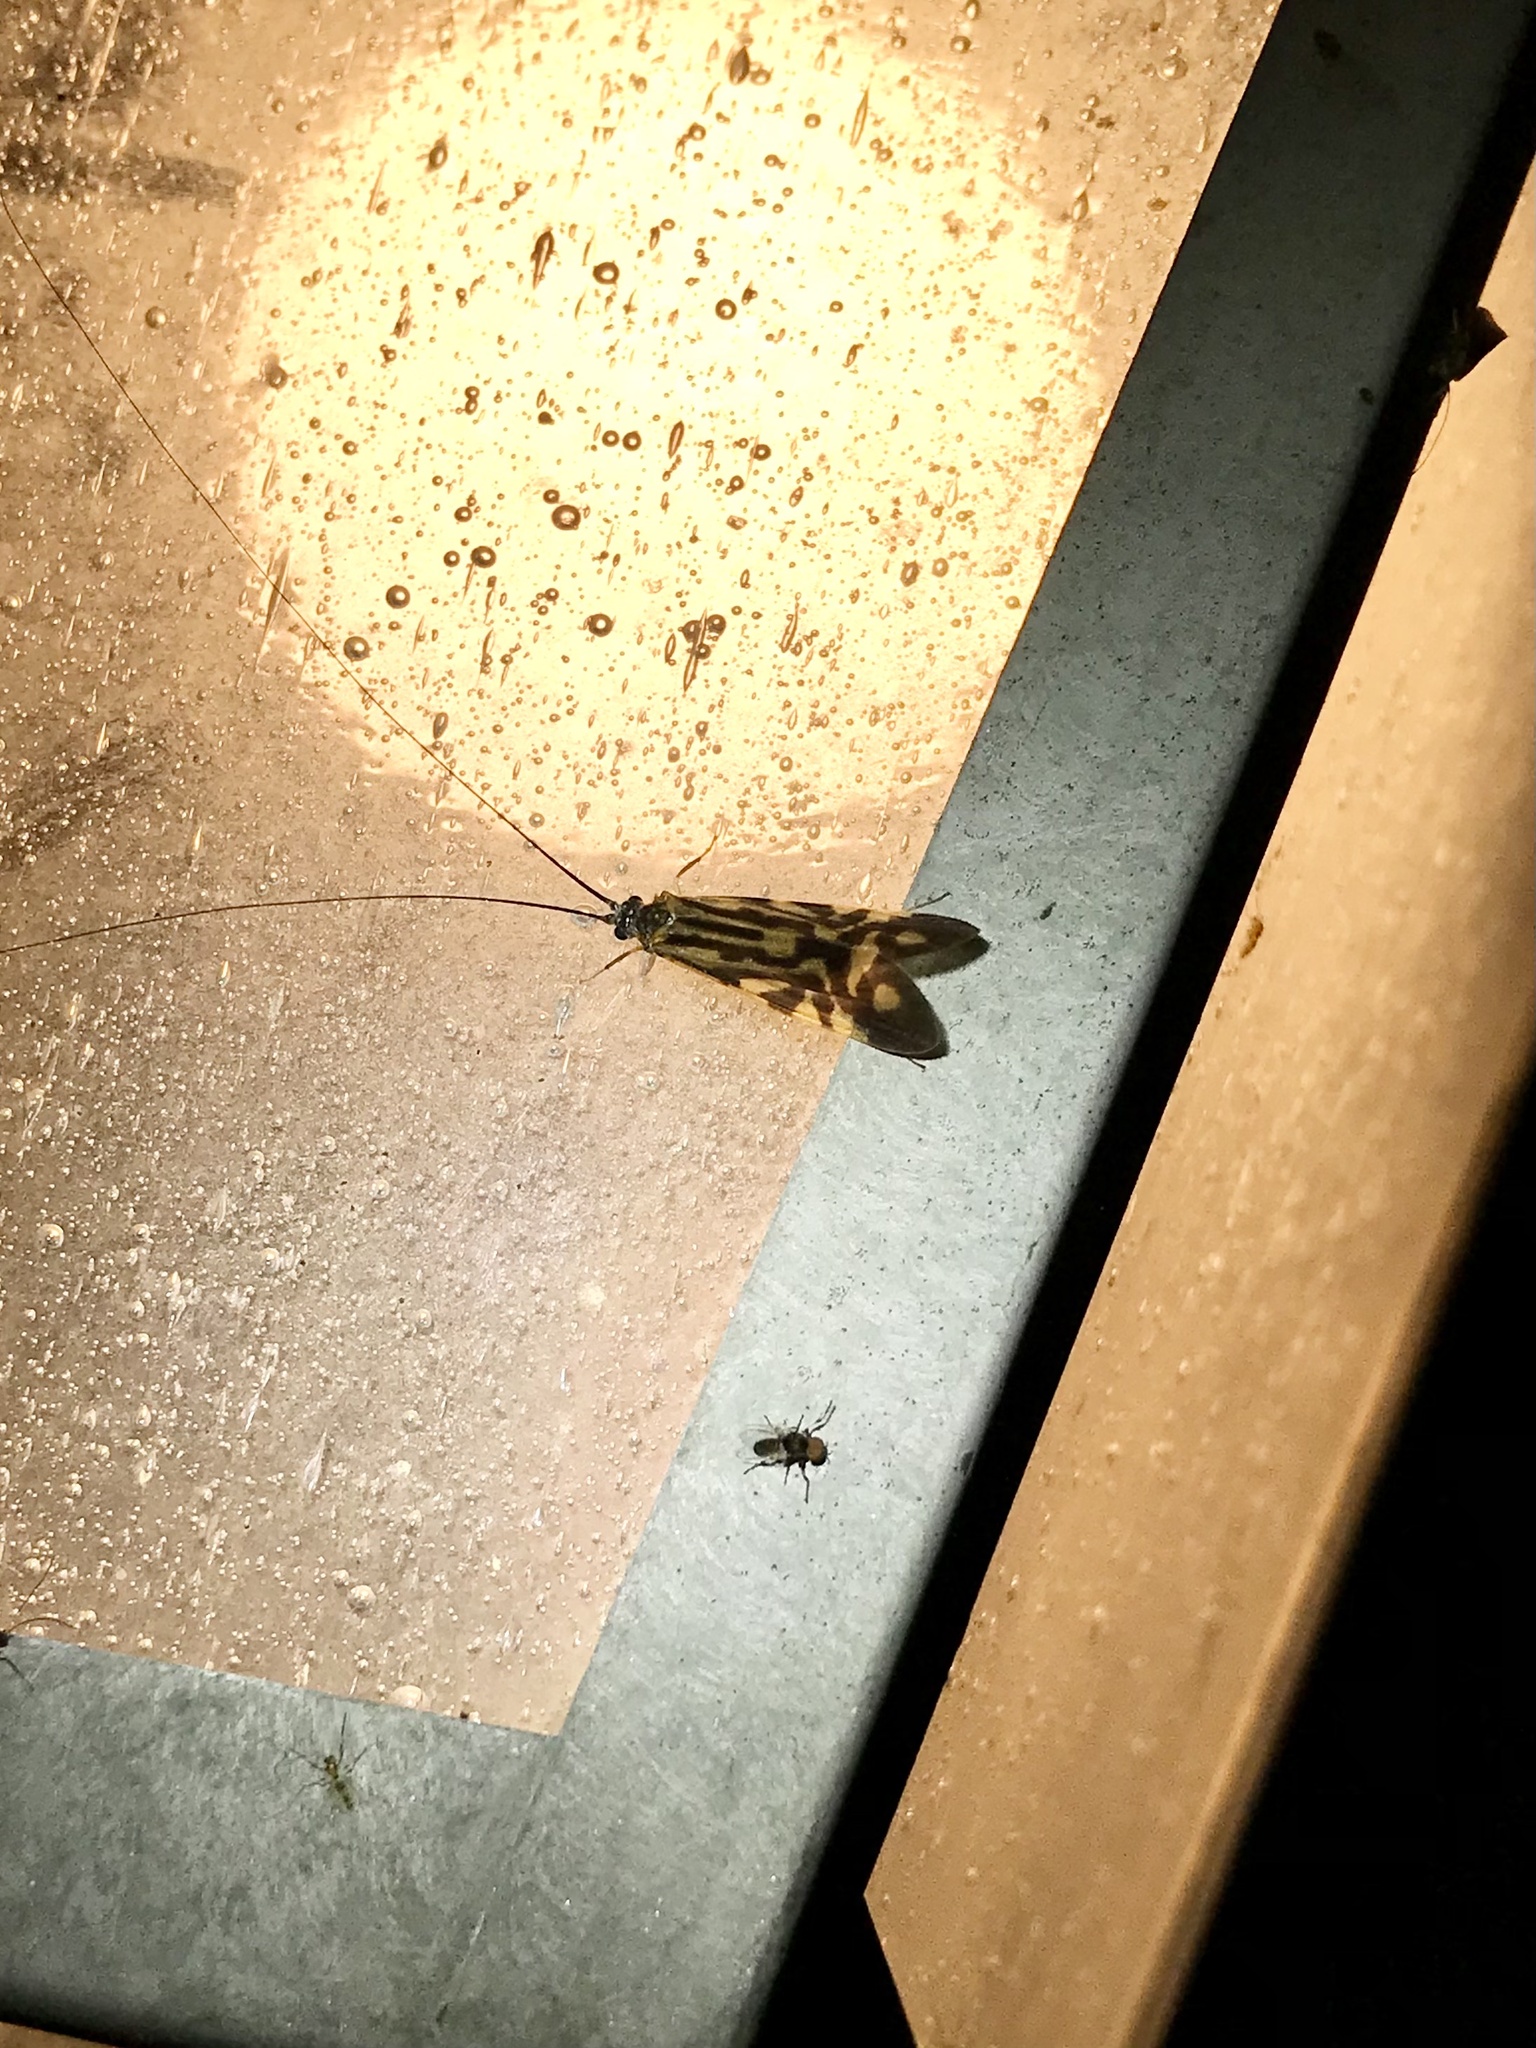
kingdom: Animalia
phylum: Arthropoda
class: Insecta
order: Trichoptera
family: Hydropsychidae
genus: Macrostemum
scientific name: Macrostemum zebratum
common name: Zebra caddisfly
